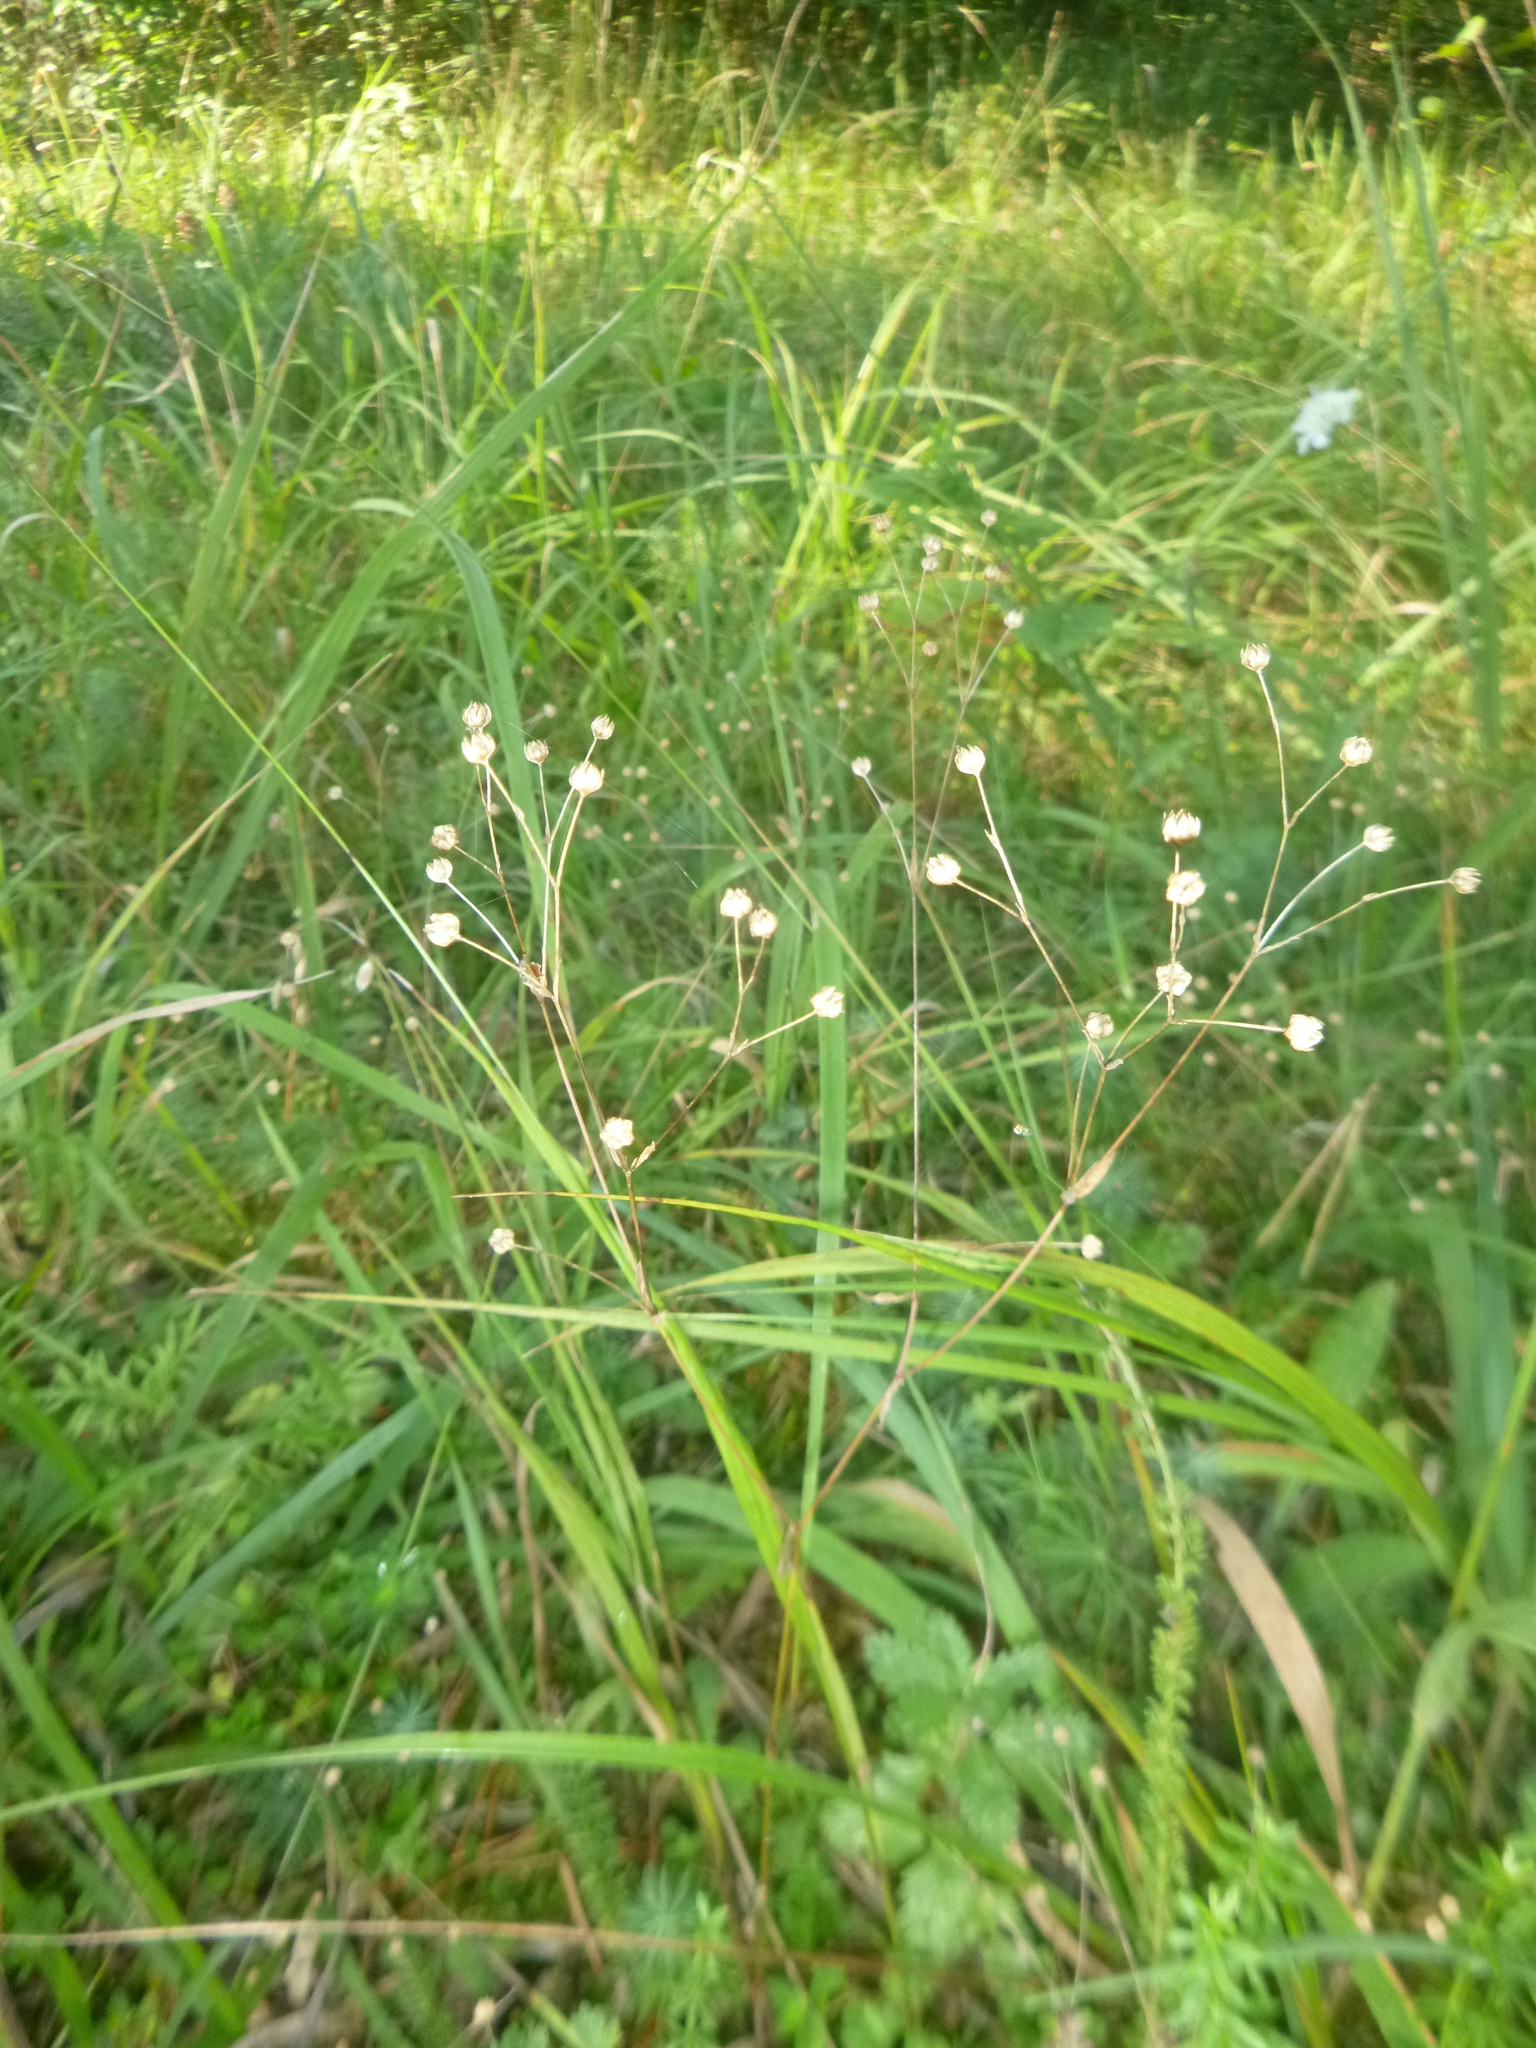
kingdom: Plantae
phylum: Tracheophyta
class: Magnoliopsida
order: Malpighiales
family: Linaceae
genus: Linum
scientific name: Linum catharticum
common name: Fairy flax
